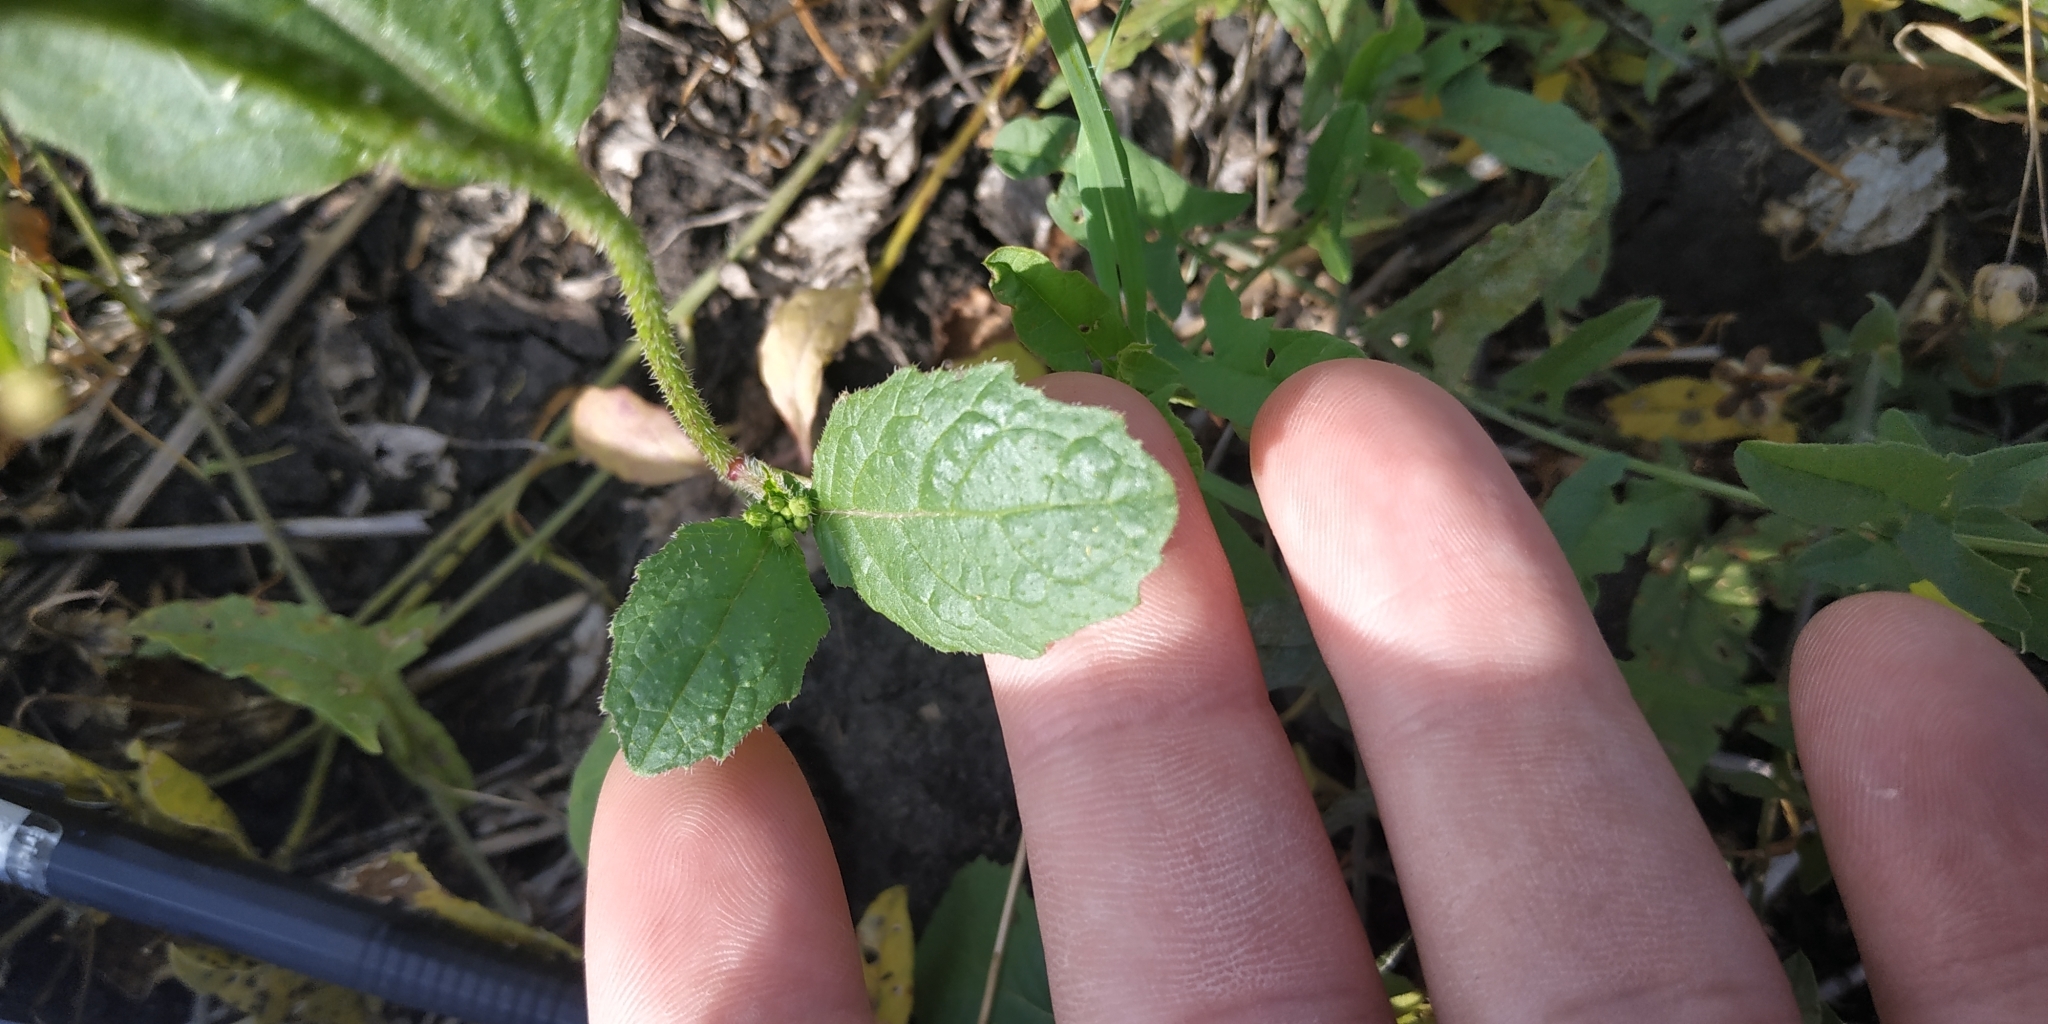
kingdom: Plantae
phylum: Tracheophyta
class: Magnoliopsida
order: Brassicales
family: Brassicaceae
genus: Sinapis
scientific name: Sinapis arvensis
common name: Charlock
